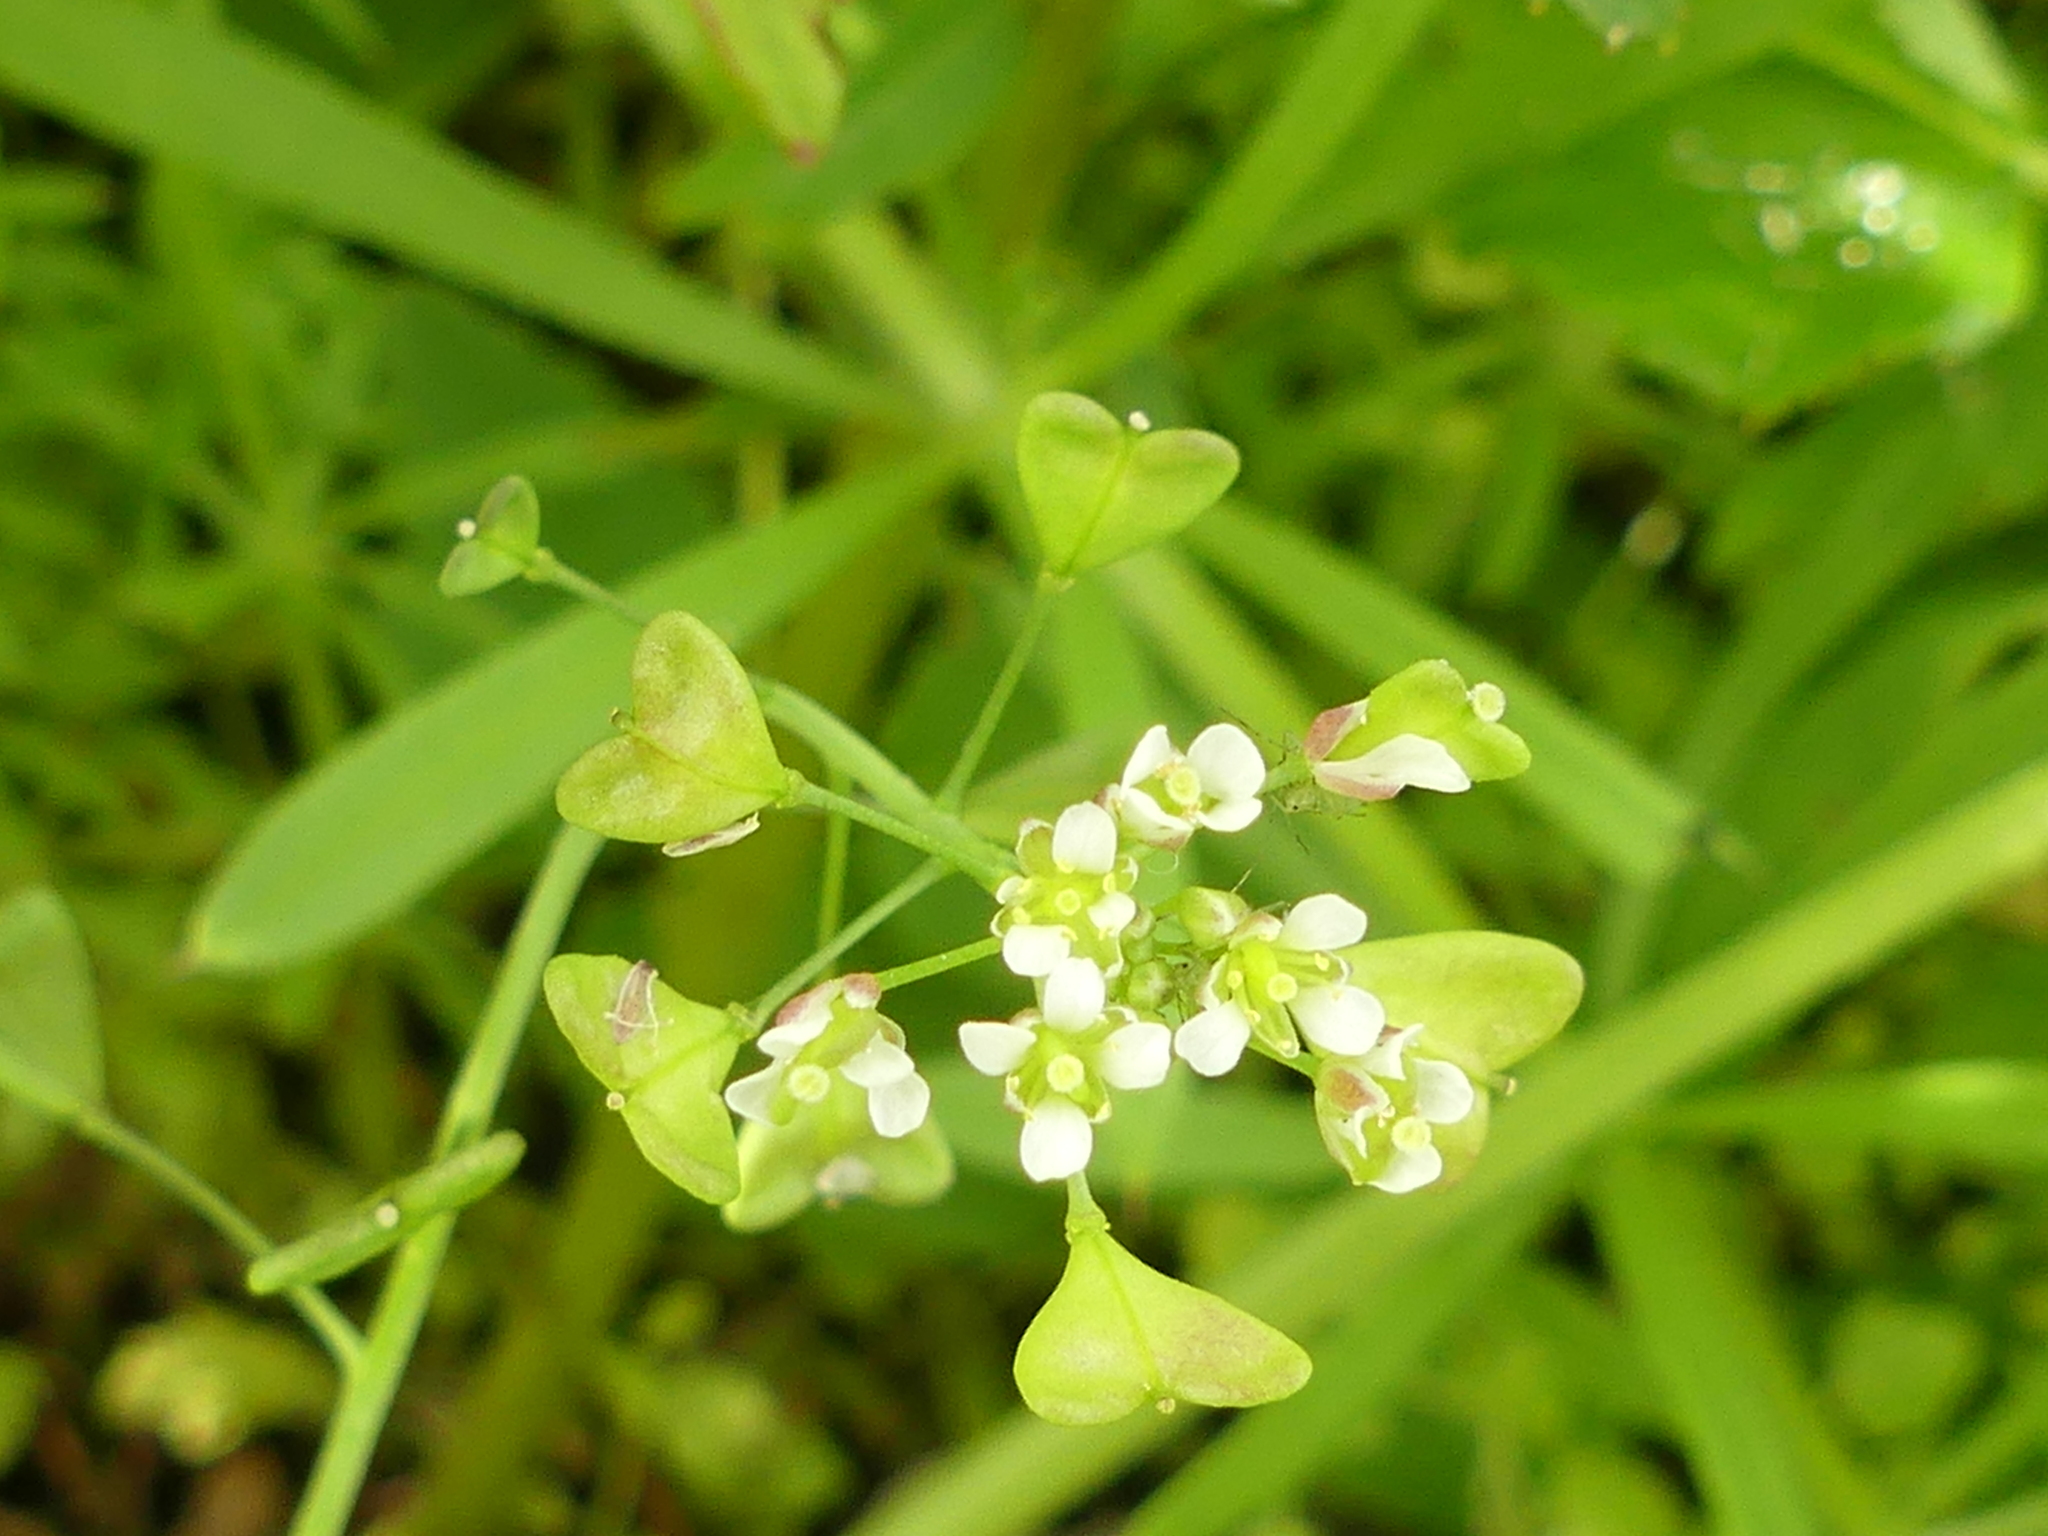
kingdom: Plantae
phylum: Tracheophyta
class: Magnoliopsida
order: Brassicales
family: Brassicaceae
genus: Capsella
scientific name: Capsella bursa-pastoris
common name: Shepherd's purse
